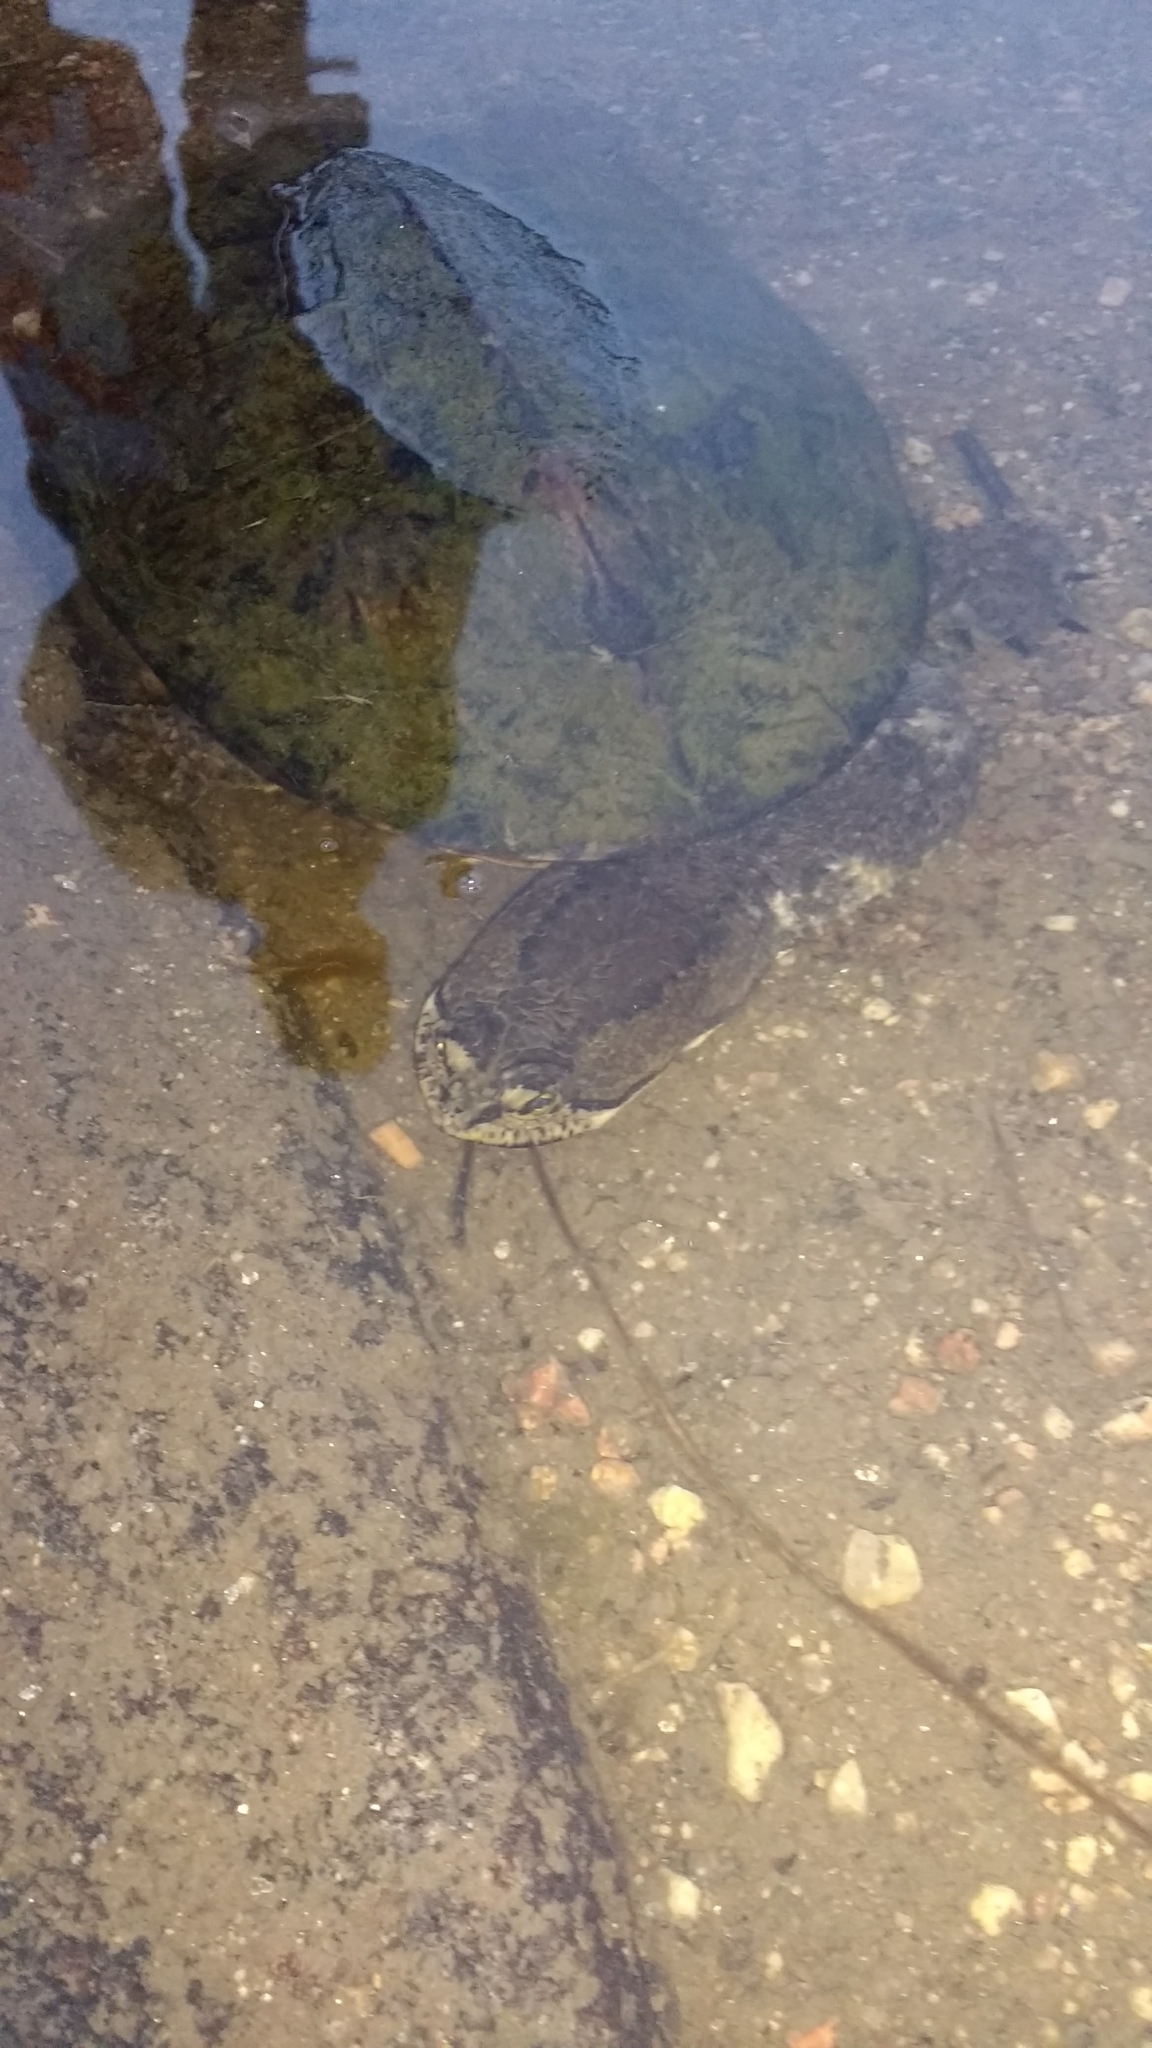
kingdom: Animalia
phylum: Chordata
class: Testudines
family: Chelidae
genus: Hydromedusa
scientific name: Hydromedusa tectifera
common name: Argentine snake-necked turtle
